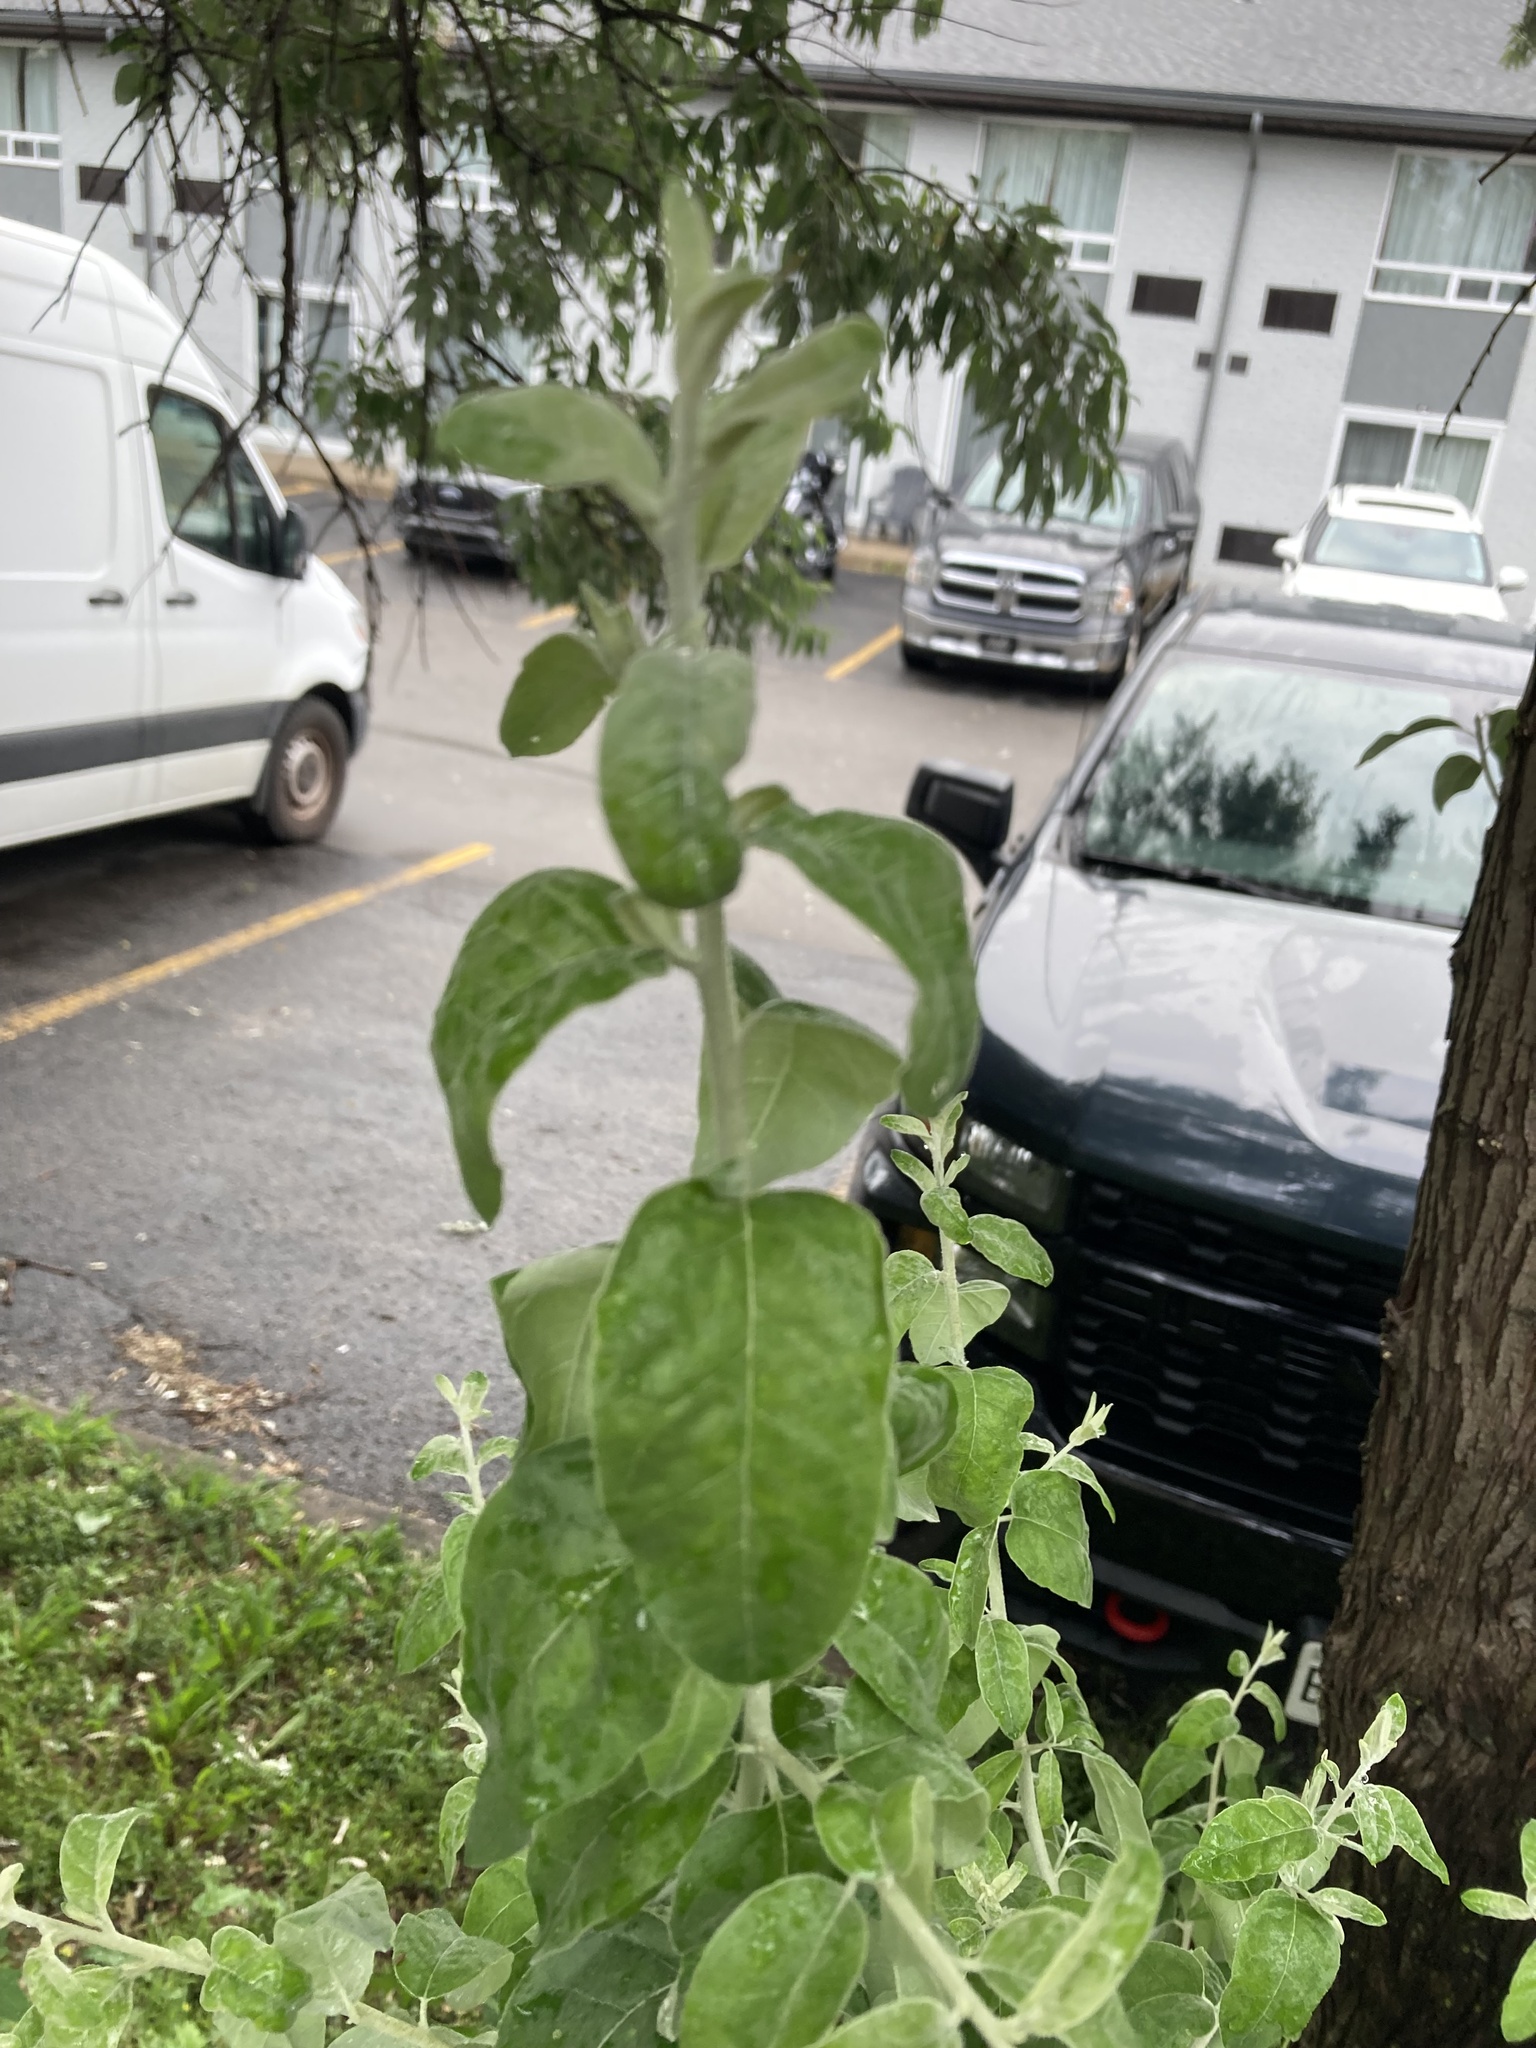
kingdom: Plantae
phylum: Tracheophyta
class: Magnoliopsida
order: Rosales
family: Elaeagnaceae
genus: Elaeagnus
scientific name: Elaeagnus umbellata
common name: Autumn olive
